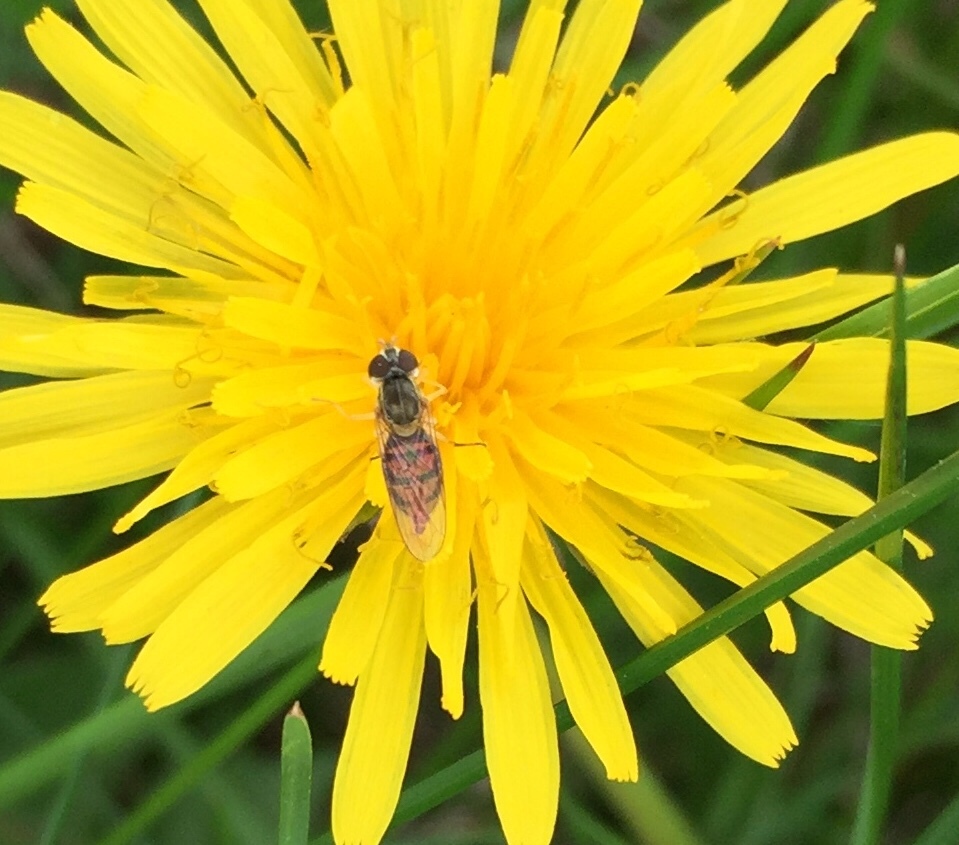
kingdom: Animalia
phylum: Arthropoda
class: Insecta
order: Diptera
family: Syrphidae
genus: Toxomerus
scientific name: Toxomerus marginatus
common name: Syrphid fly
